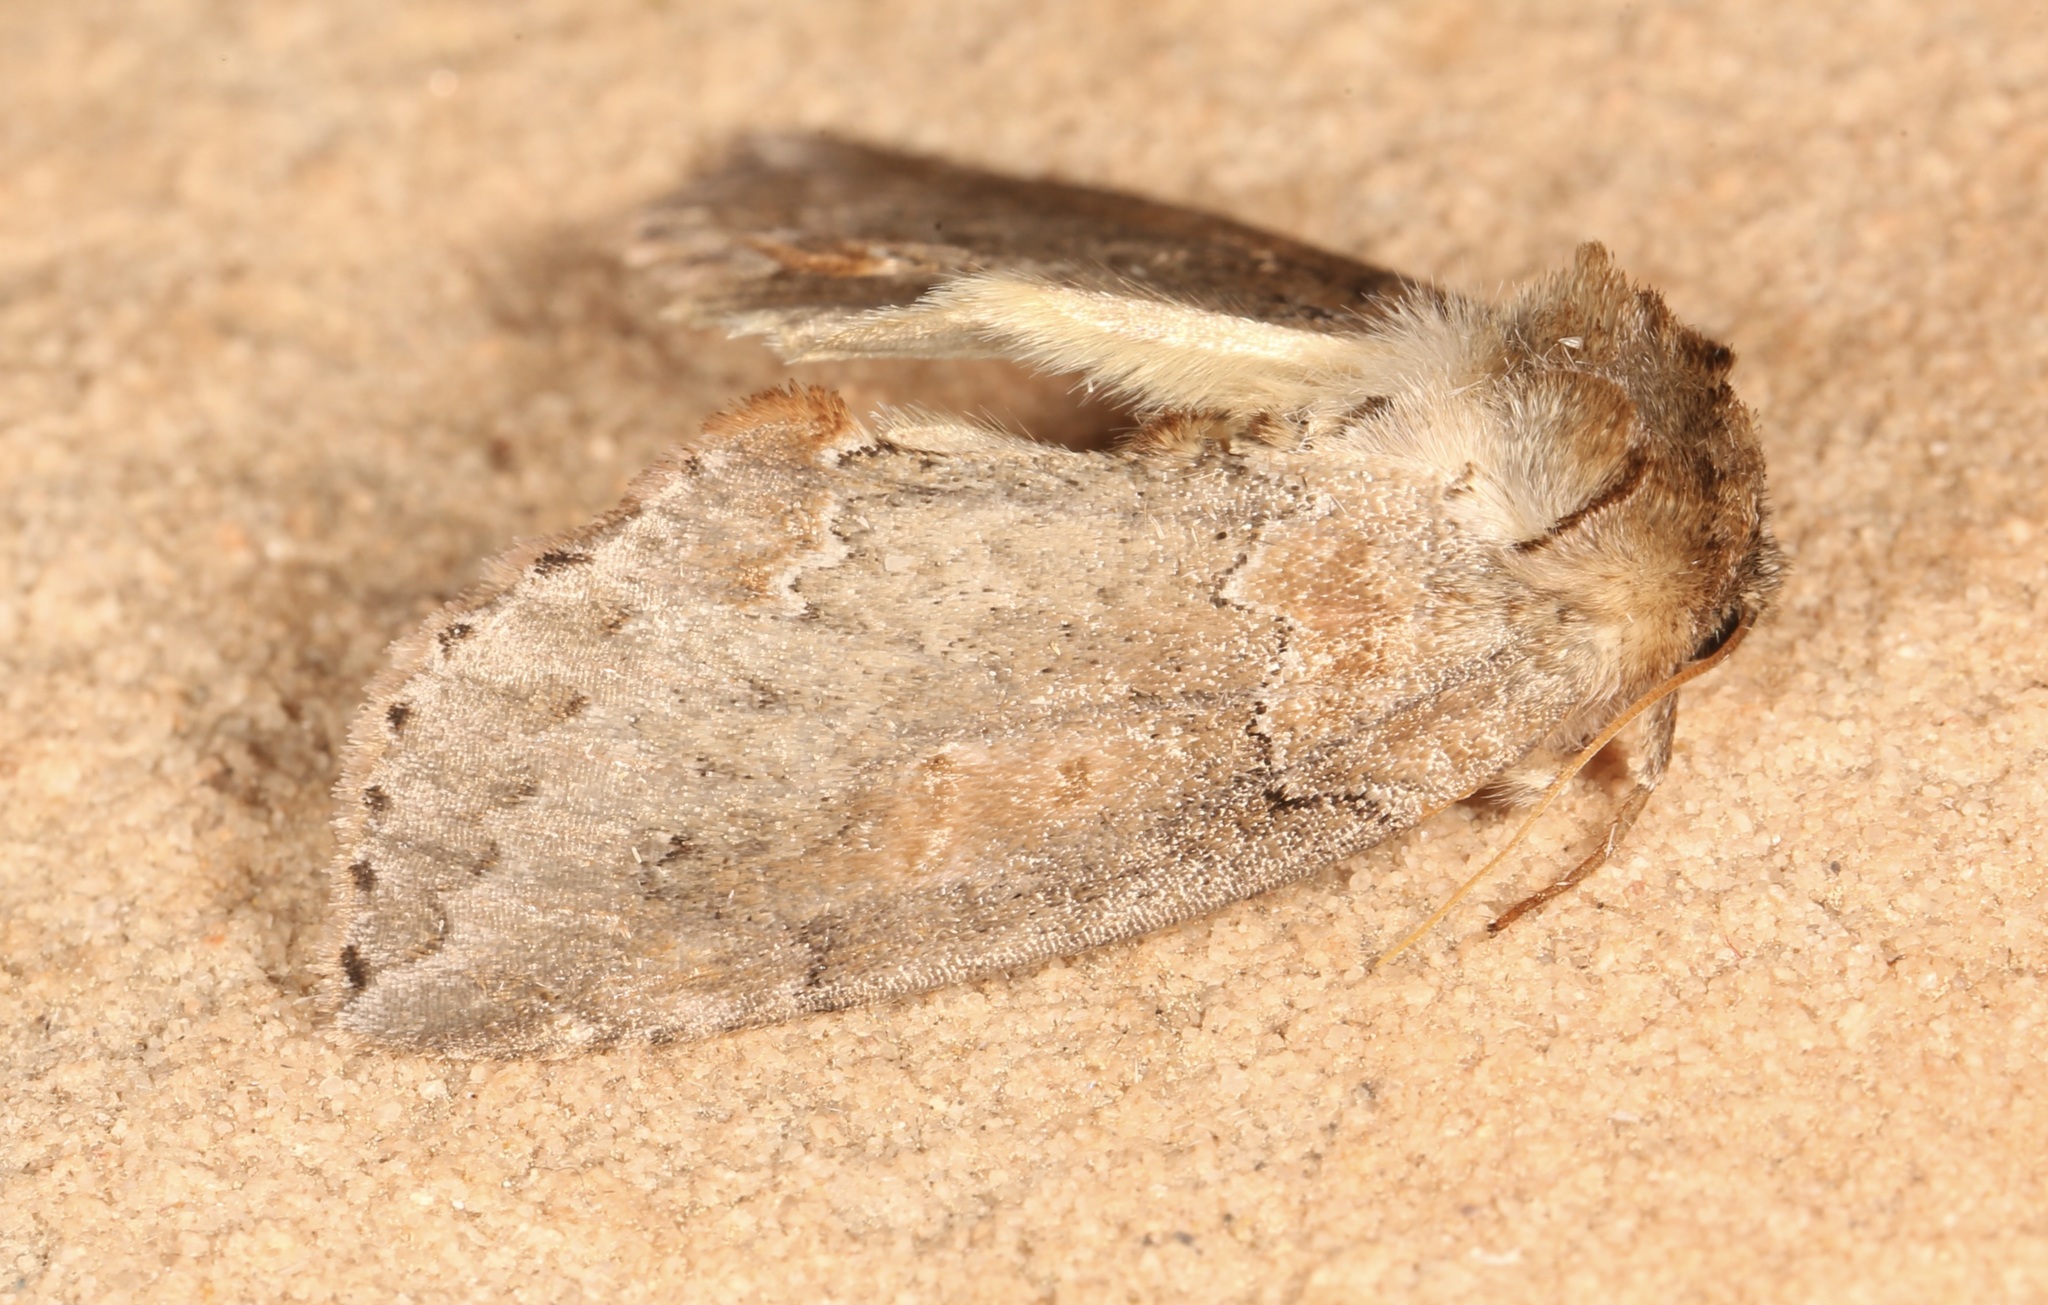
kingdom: Animalia
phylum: Arthropoda
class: Insecta
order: Lepidoptera
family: Drepanidae
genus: Pseudothyatira
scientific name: Pseudothyatira cymatophoroides
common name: Tufted thyatirid moth
